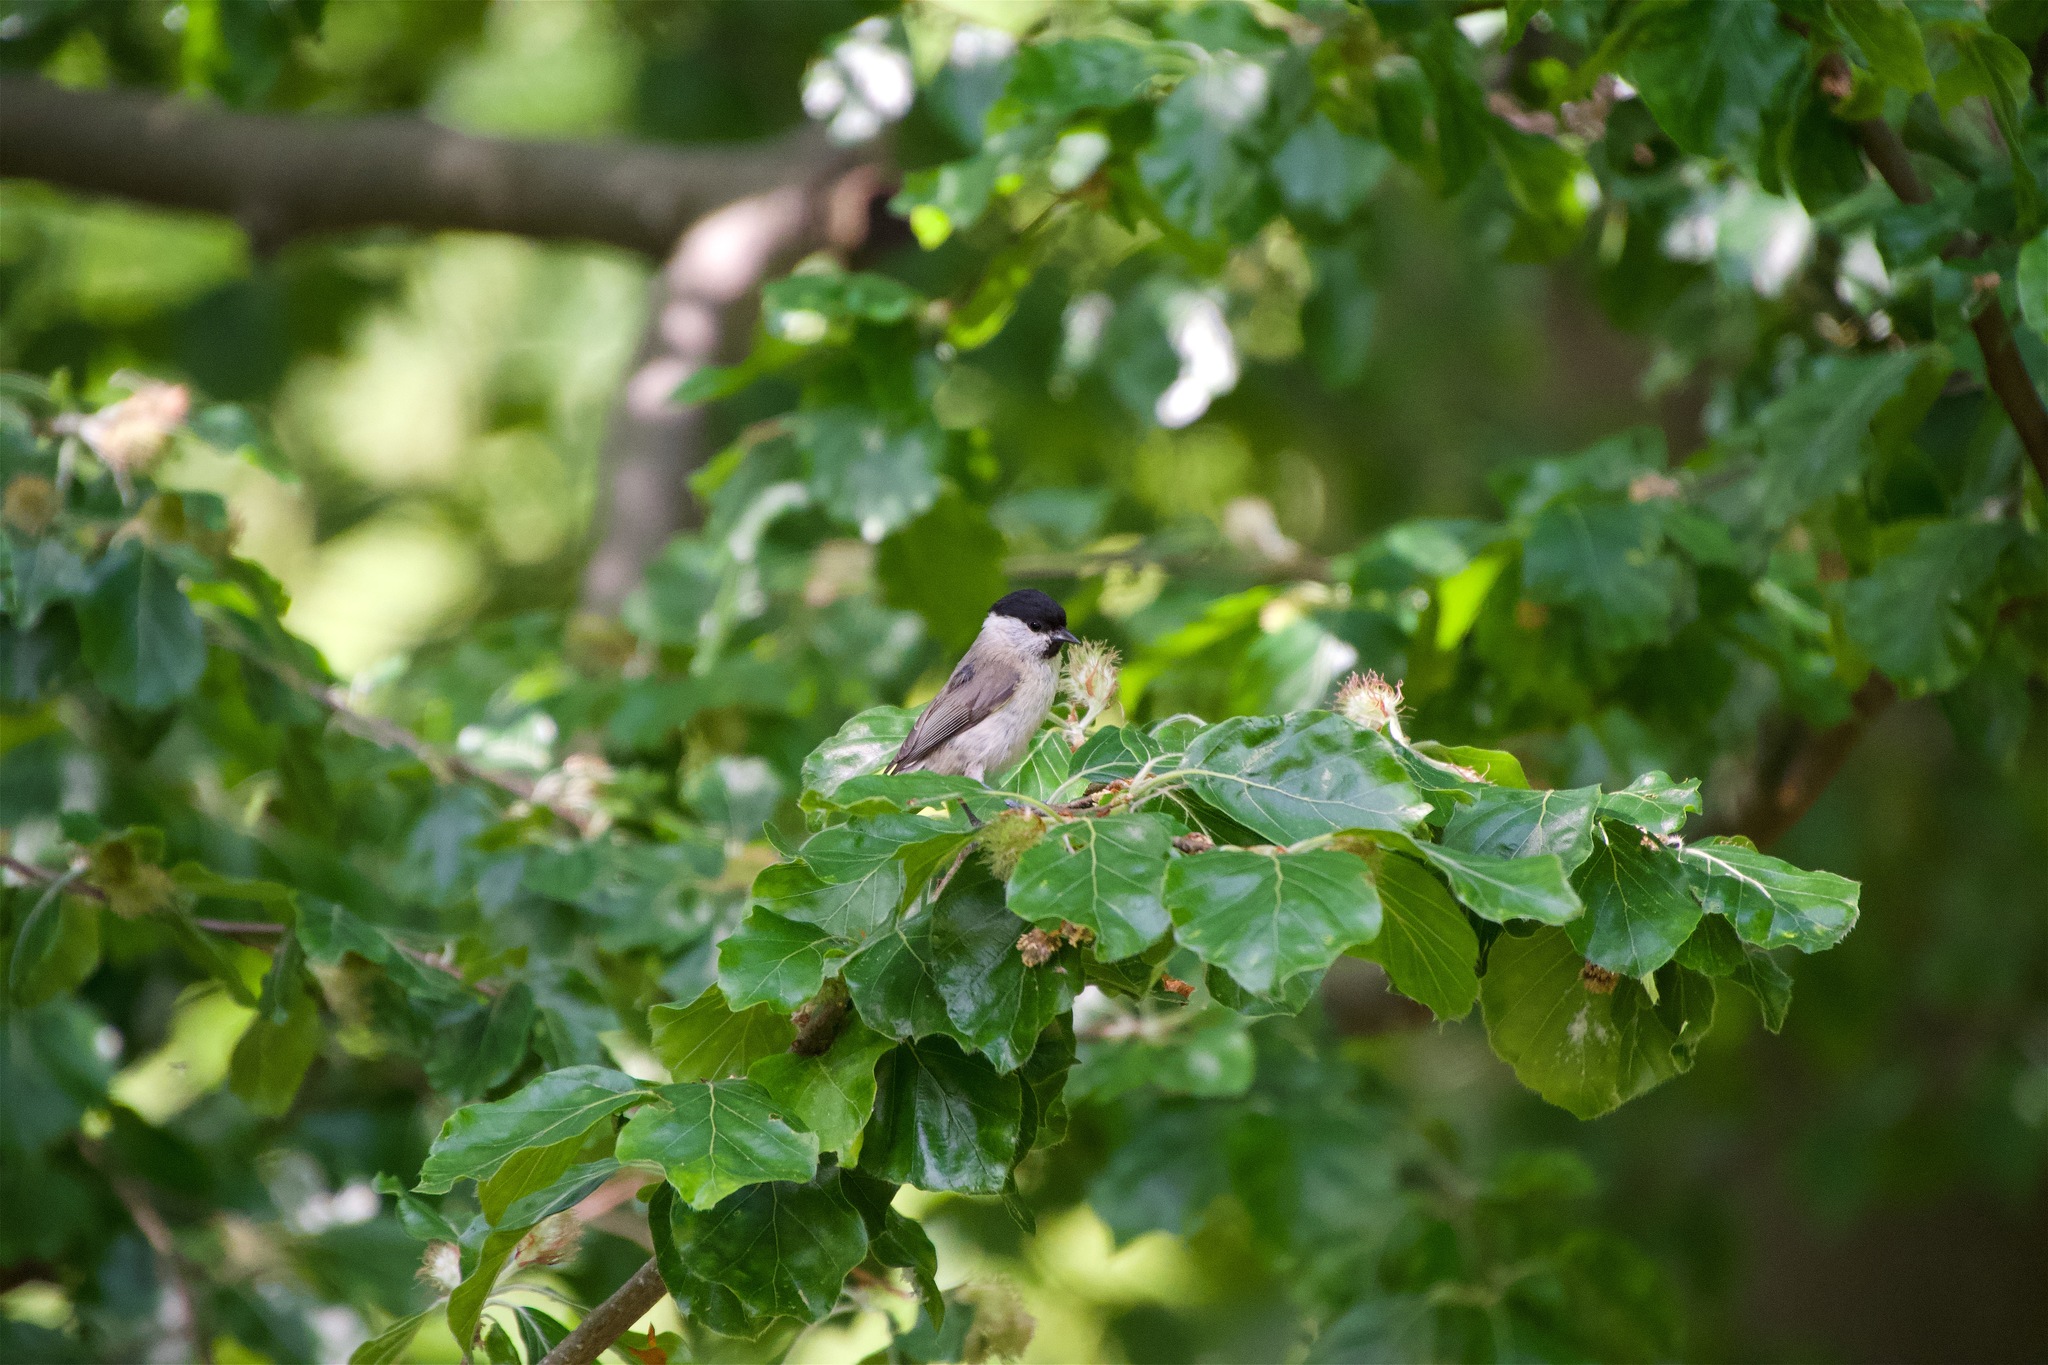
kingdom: Animalia
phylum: Chordata
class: Aves
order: Passeriformes
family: Paridae
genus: Poecile
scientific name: Poecile palustris
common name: Marsh tit
